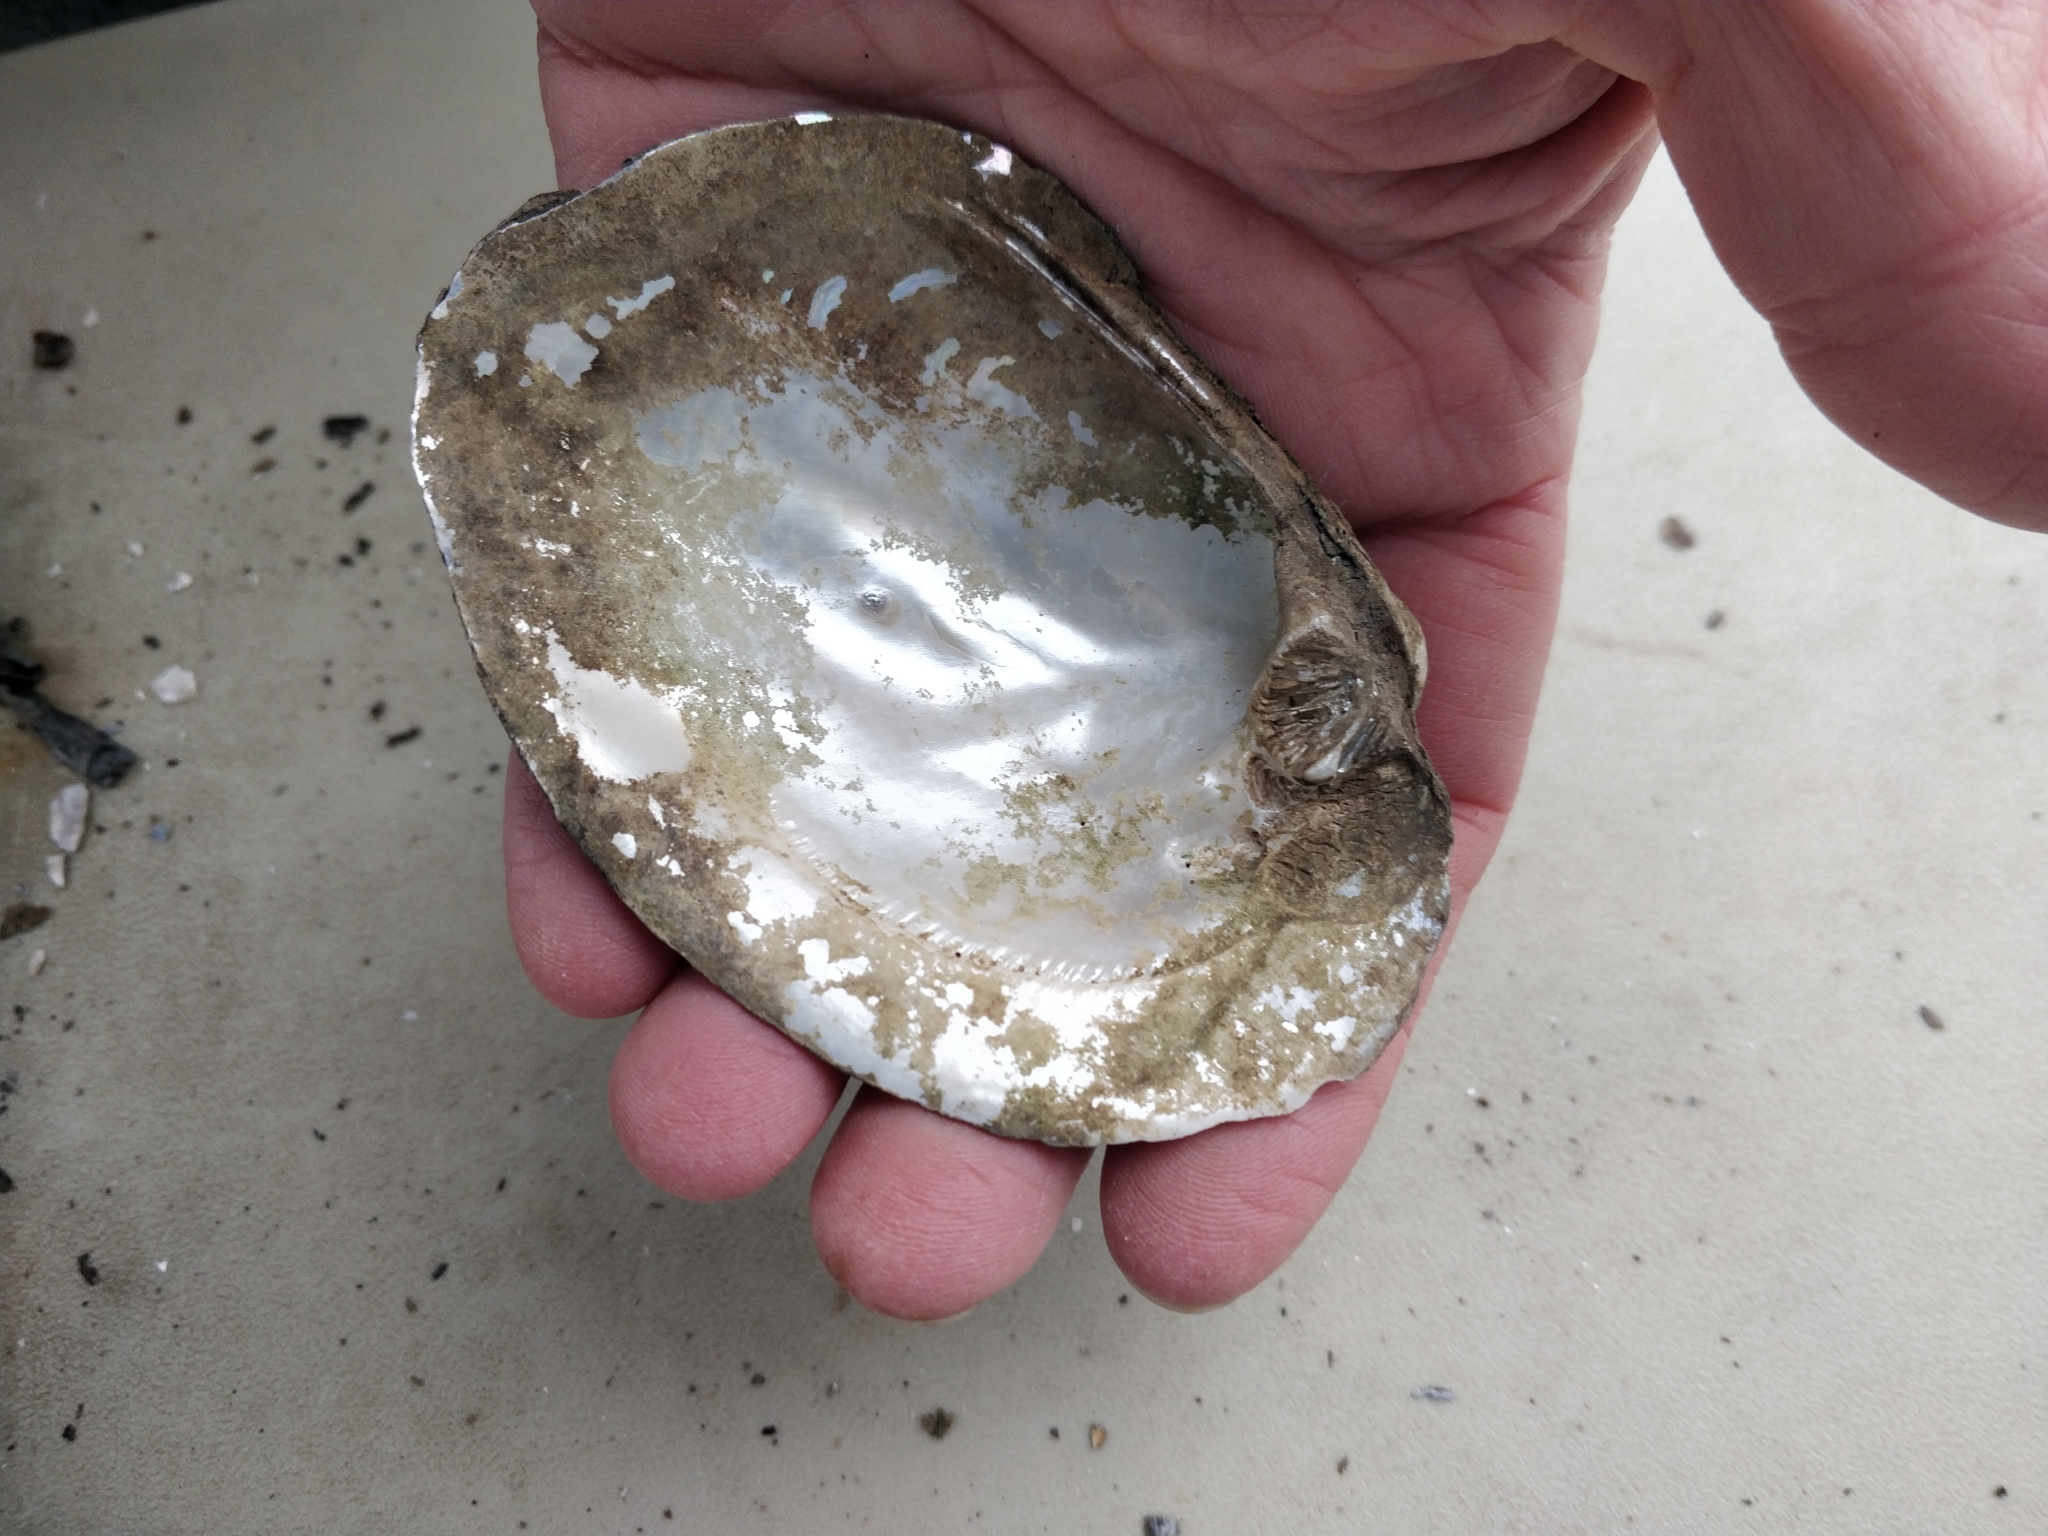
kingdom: Animalia
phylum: Mollusca
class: Bivalvia
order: Unionida
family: Unionidae
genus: Amblema
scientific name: Amblema plicata
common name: Threeridge
